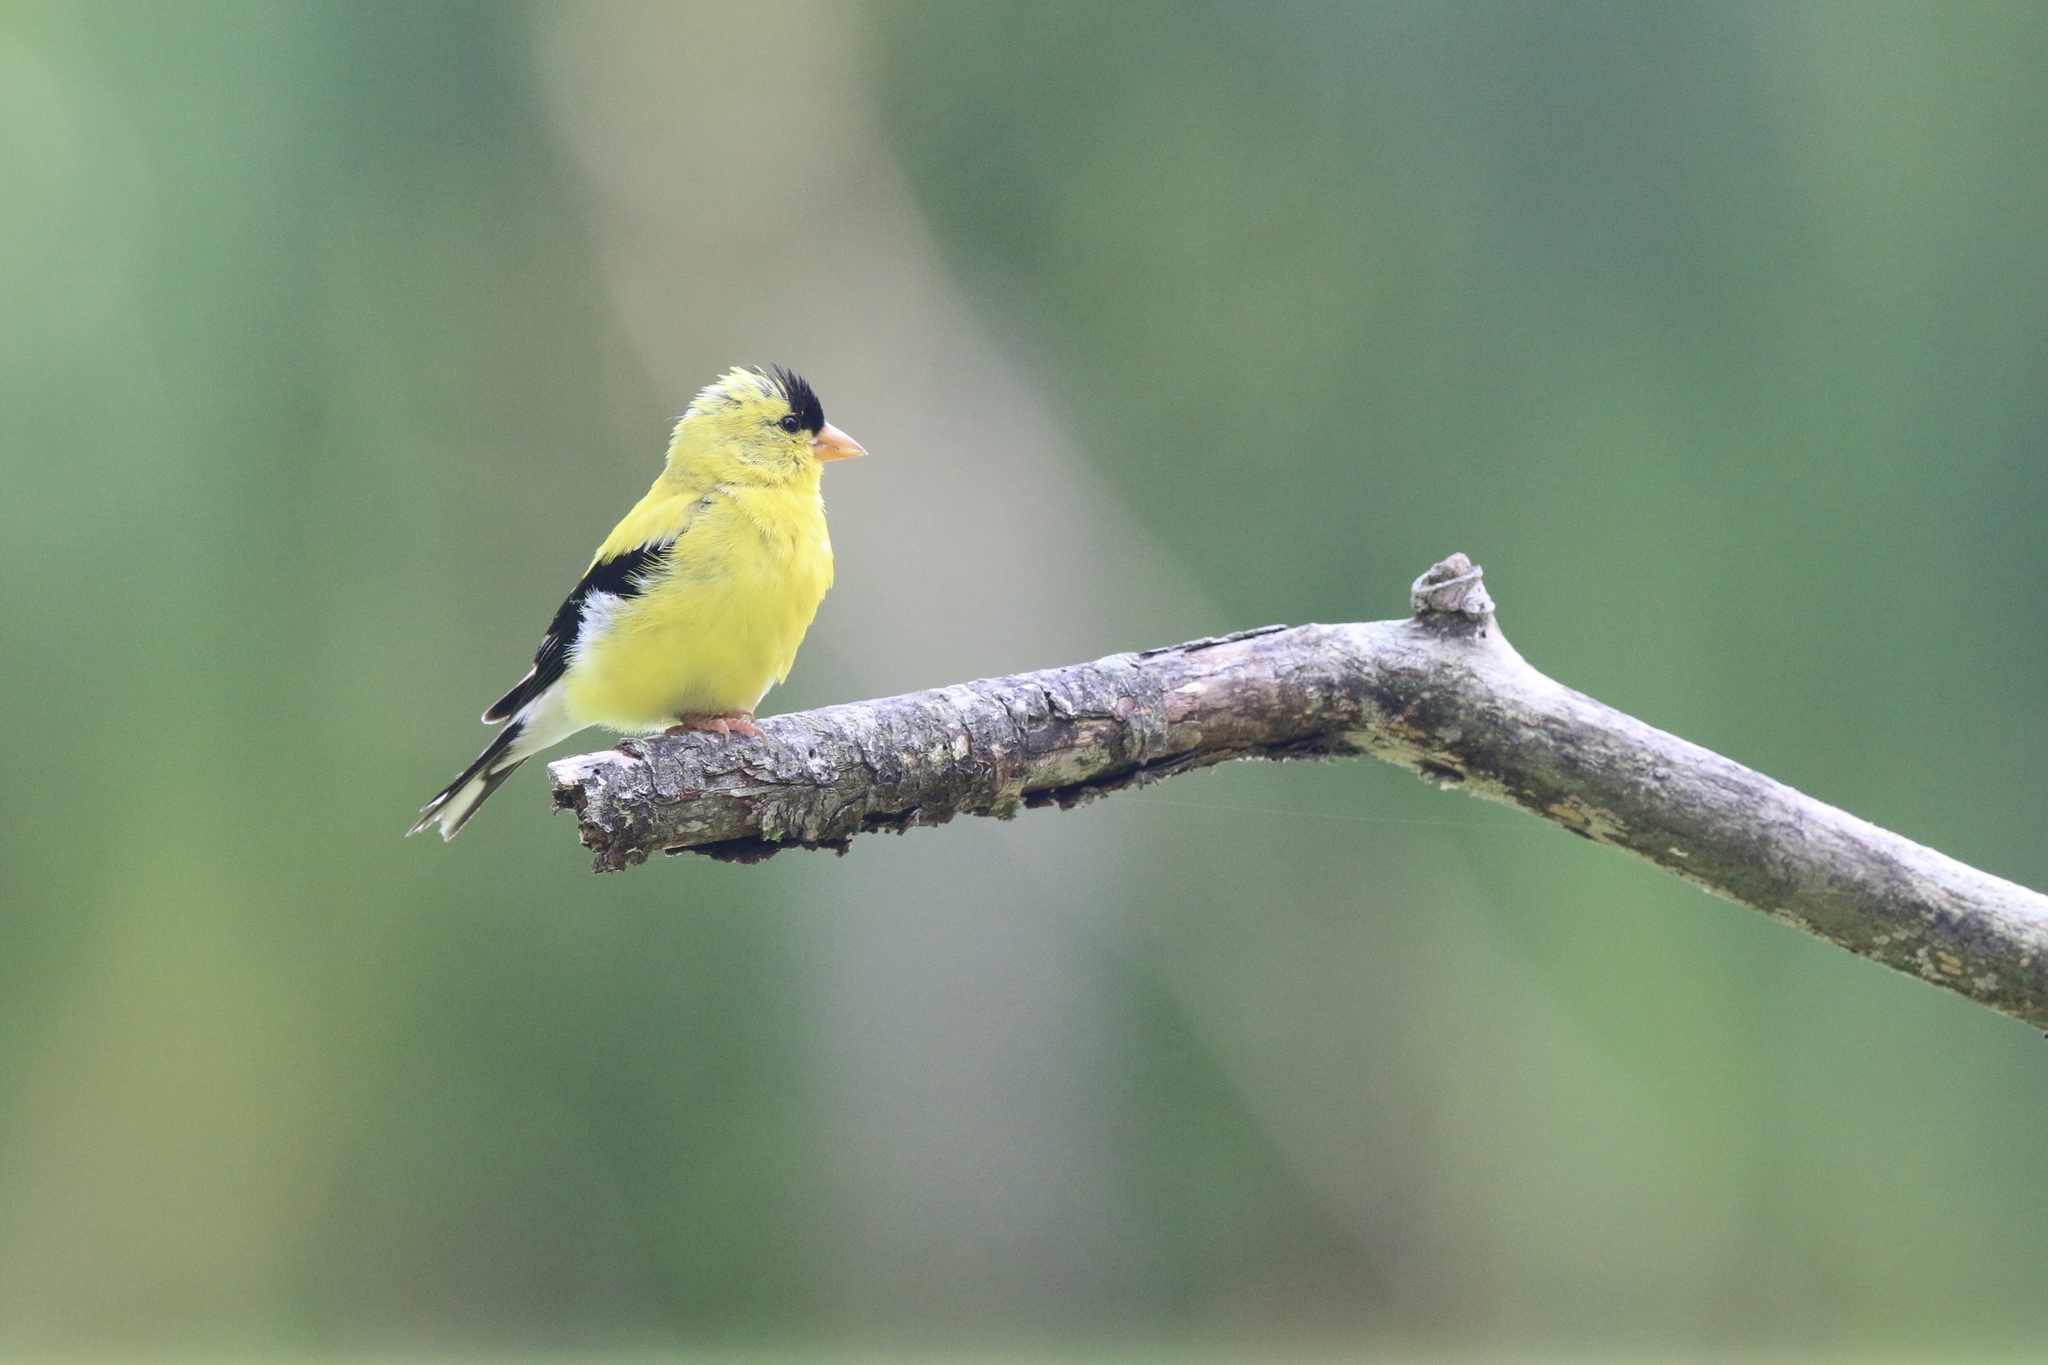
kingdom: Animalia
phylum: Chordata
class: Aves
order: Passeriformes
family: Fringillidae
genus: Spinus
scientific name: Spinus tristis
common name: American goldfinch
